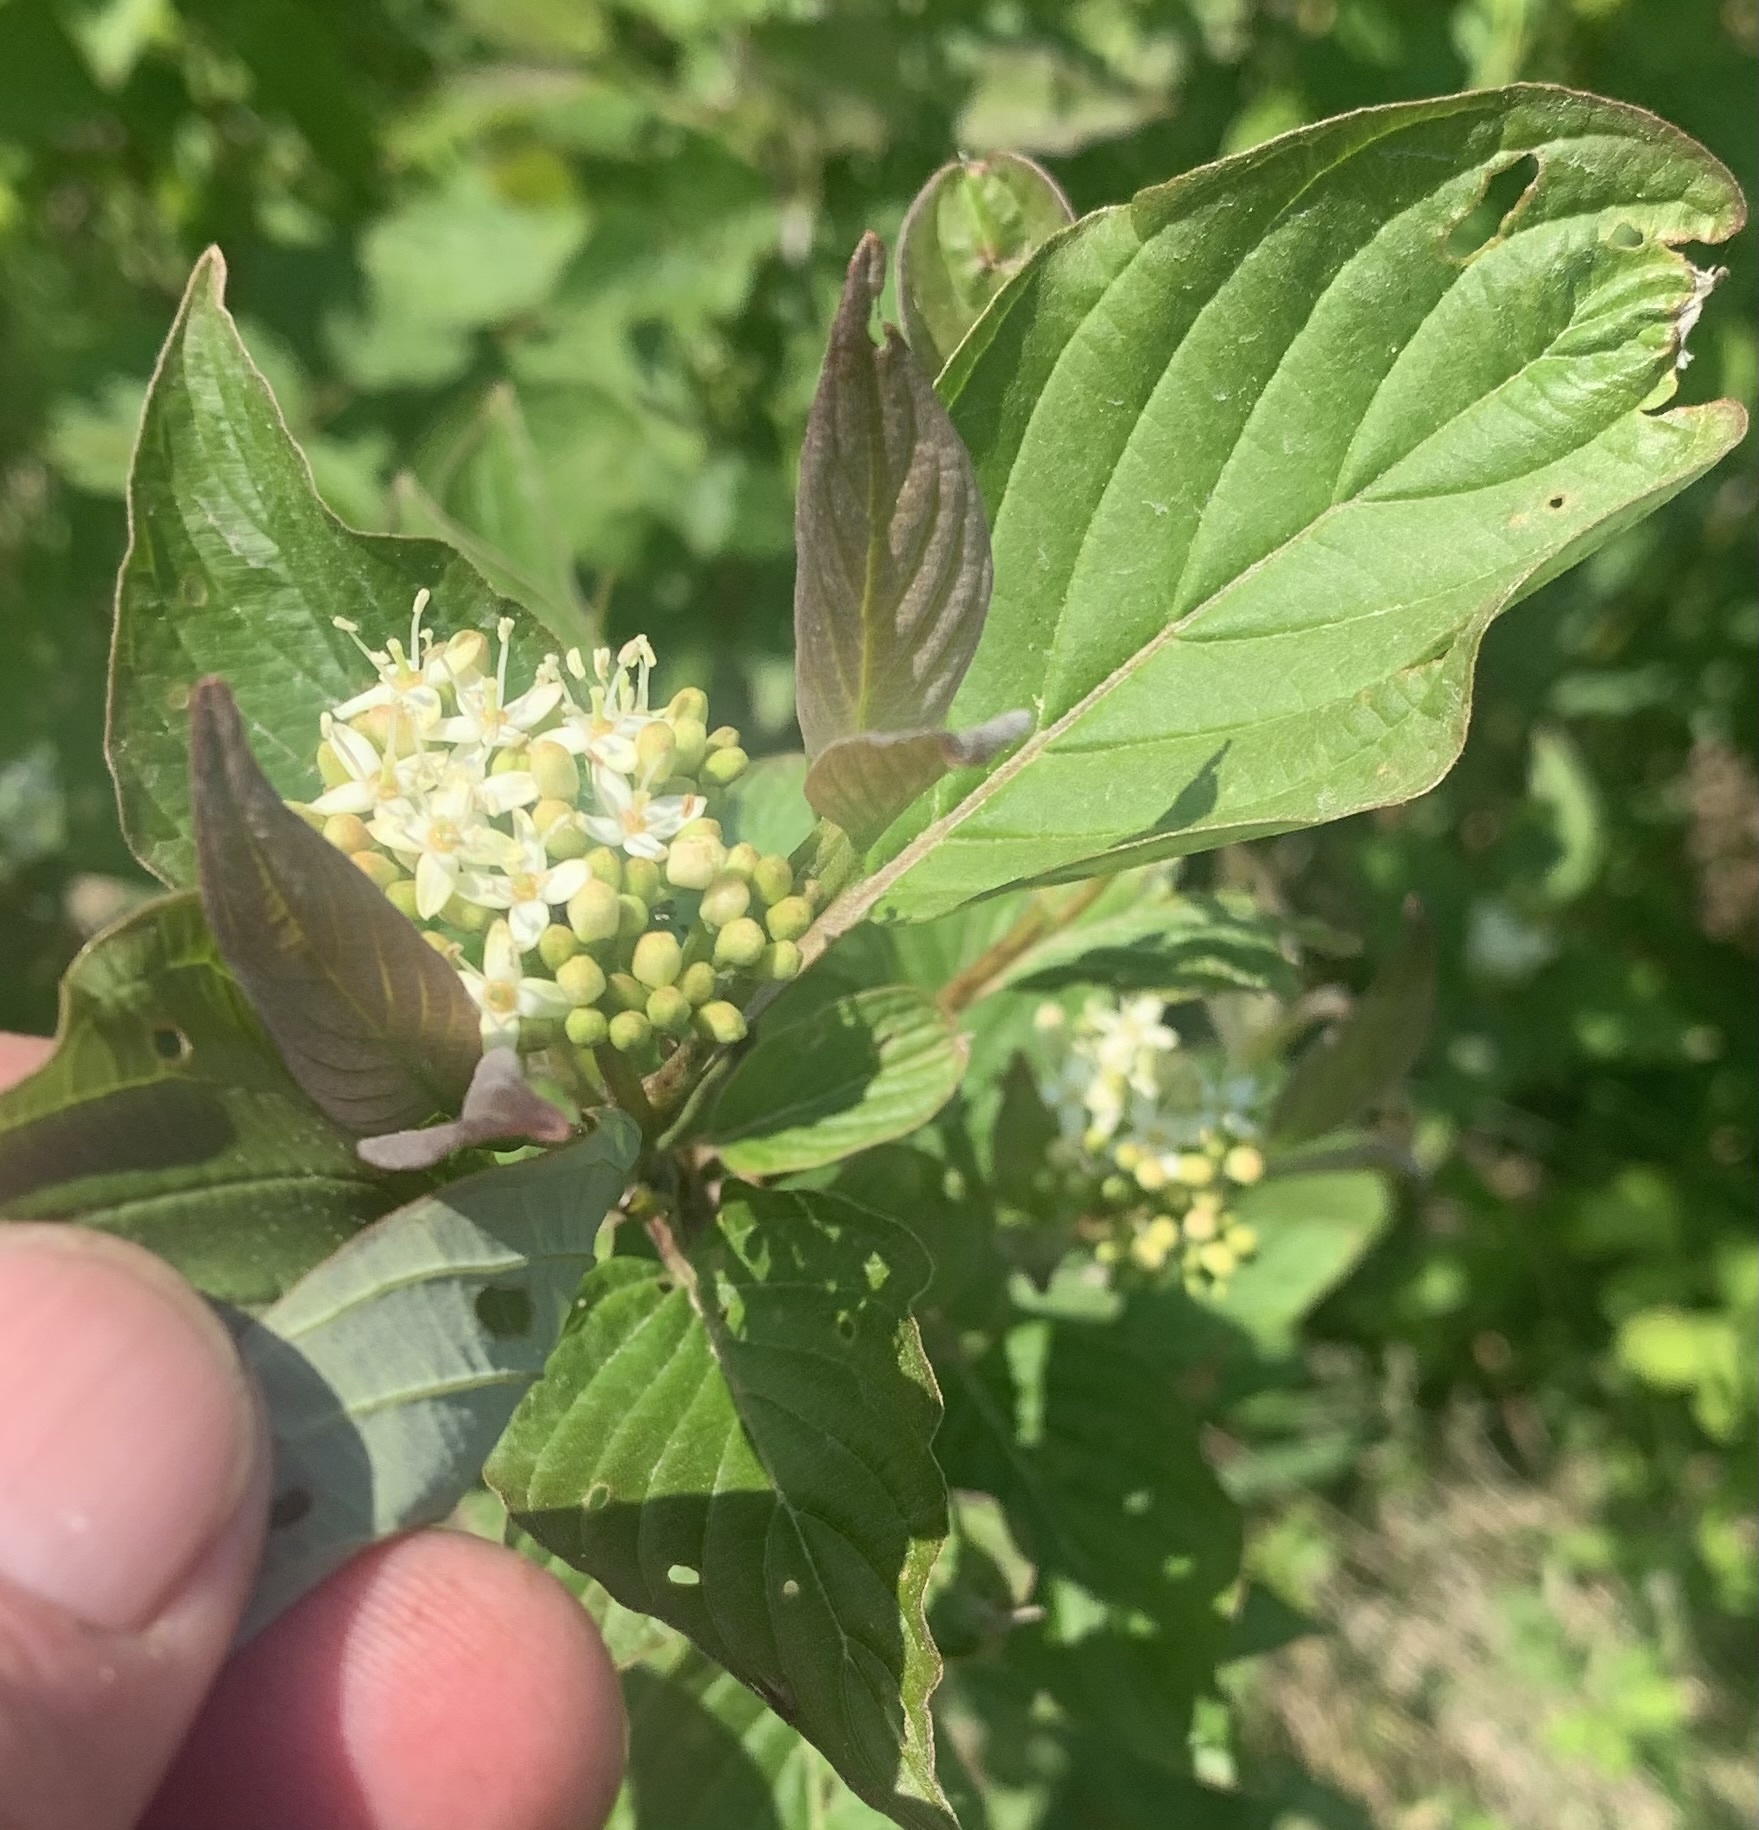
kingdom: Plantae
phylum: Tracheophyta
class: Magnoliopsida
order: Cornales
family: Cornaceae
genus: Cornus
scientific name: Cornus sericea
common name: Red-osier dogwood
